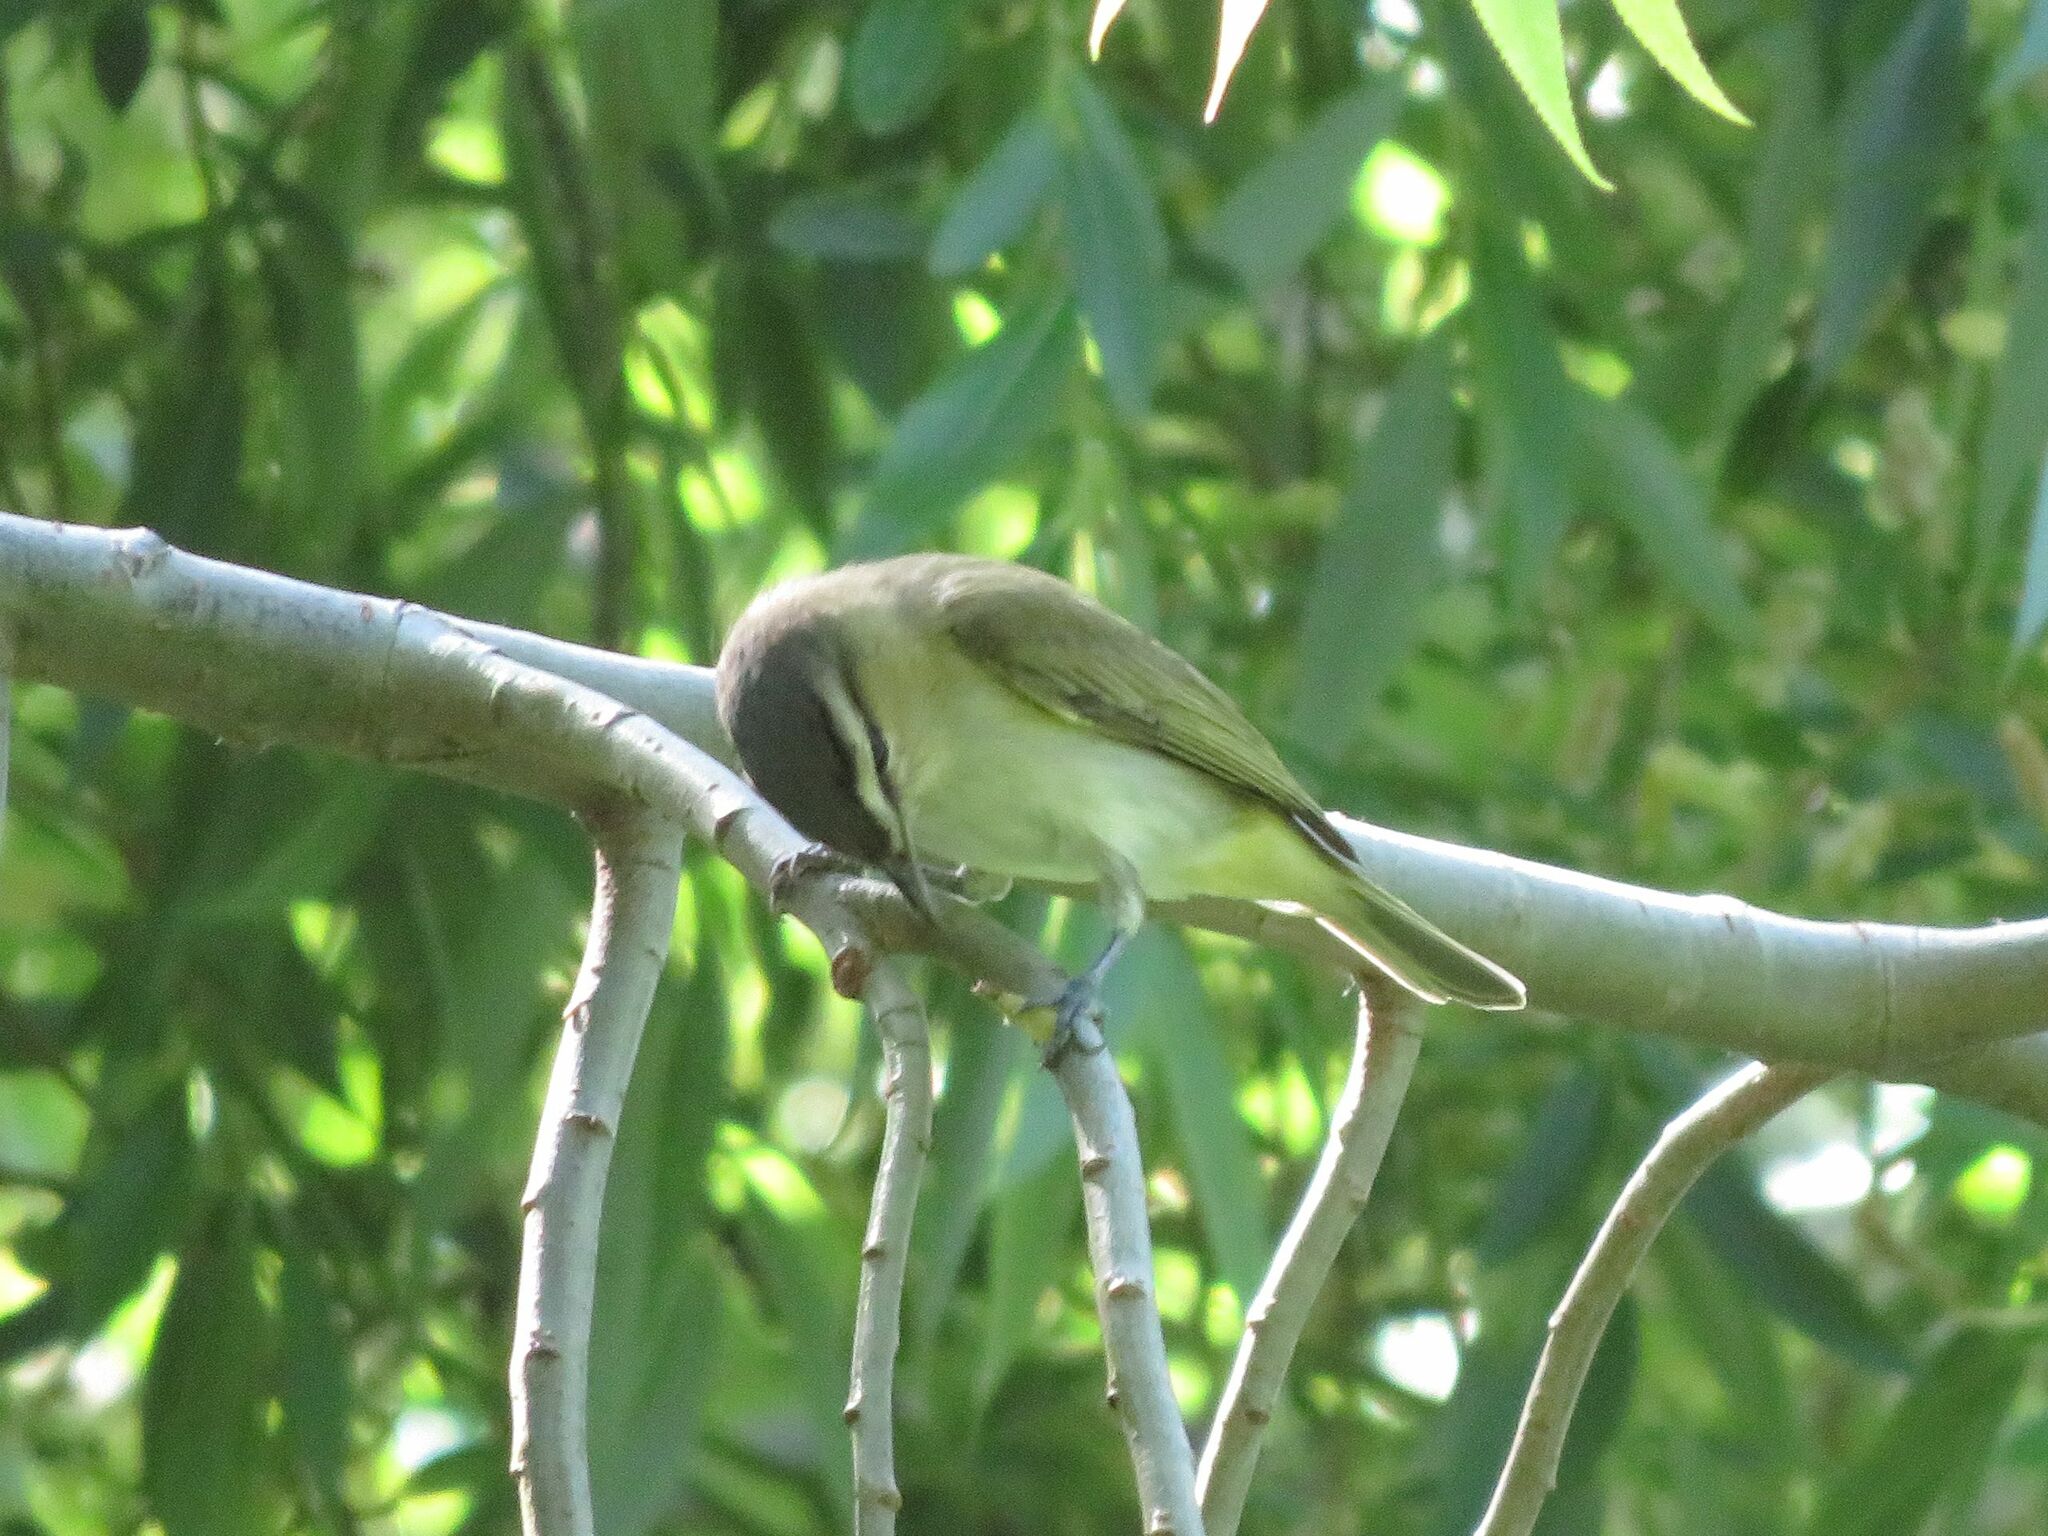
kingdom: Animalia
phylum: Chordata
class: Aves
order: Passeriformes
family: Vireonidae
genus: Vireo
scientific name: Vireo olivaceus
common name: Red-eyed vireo
